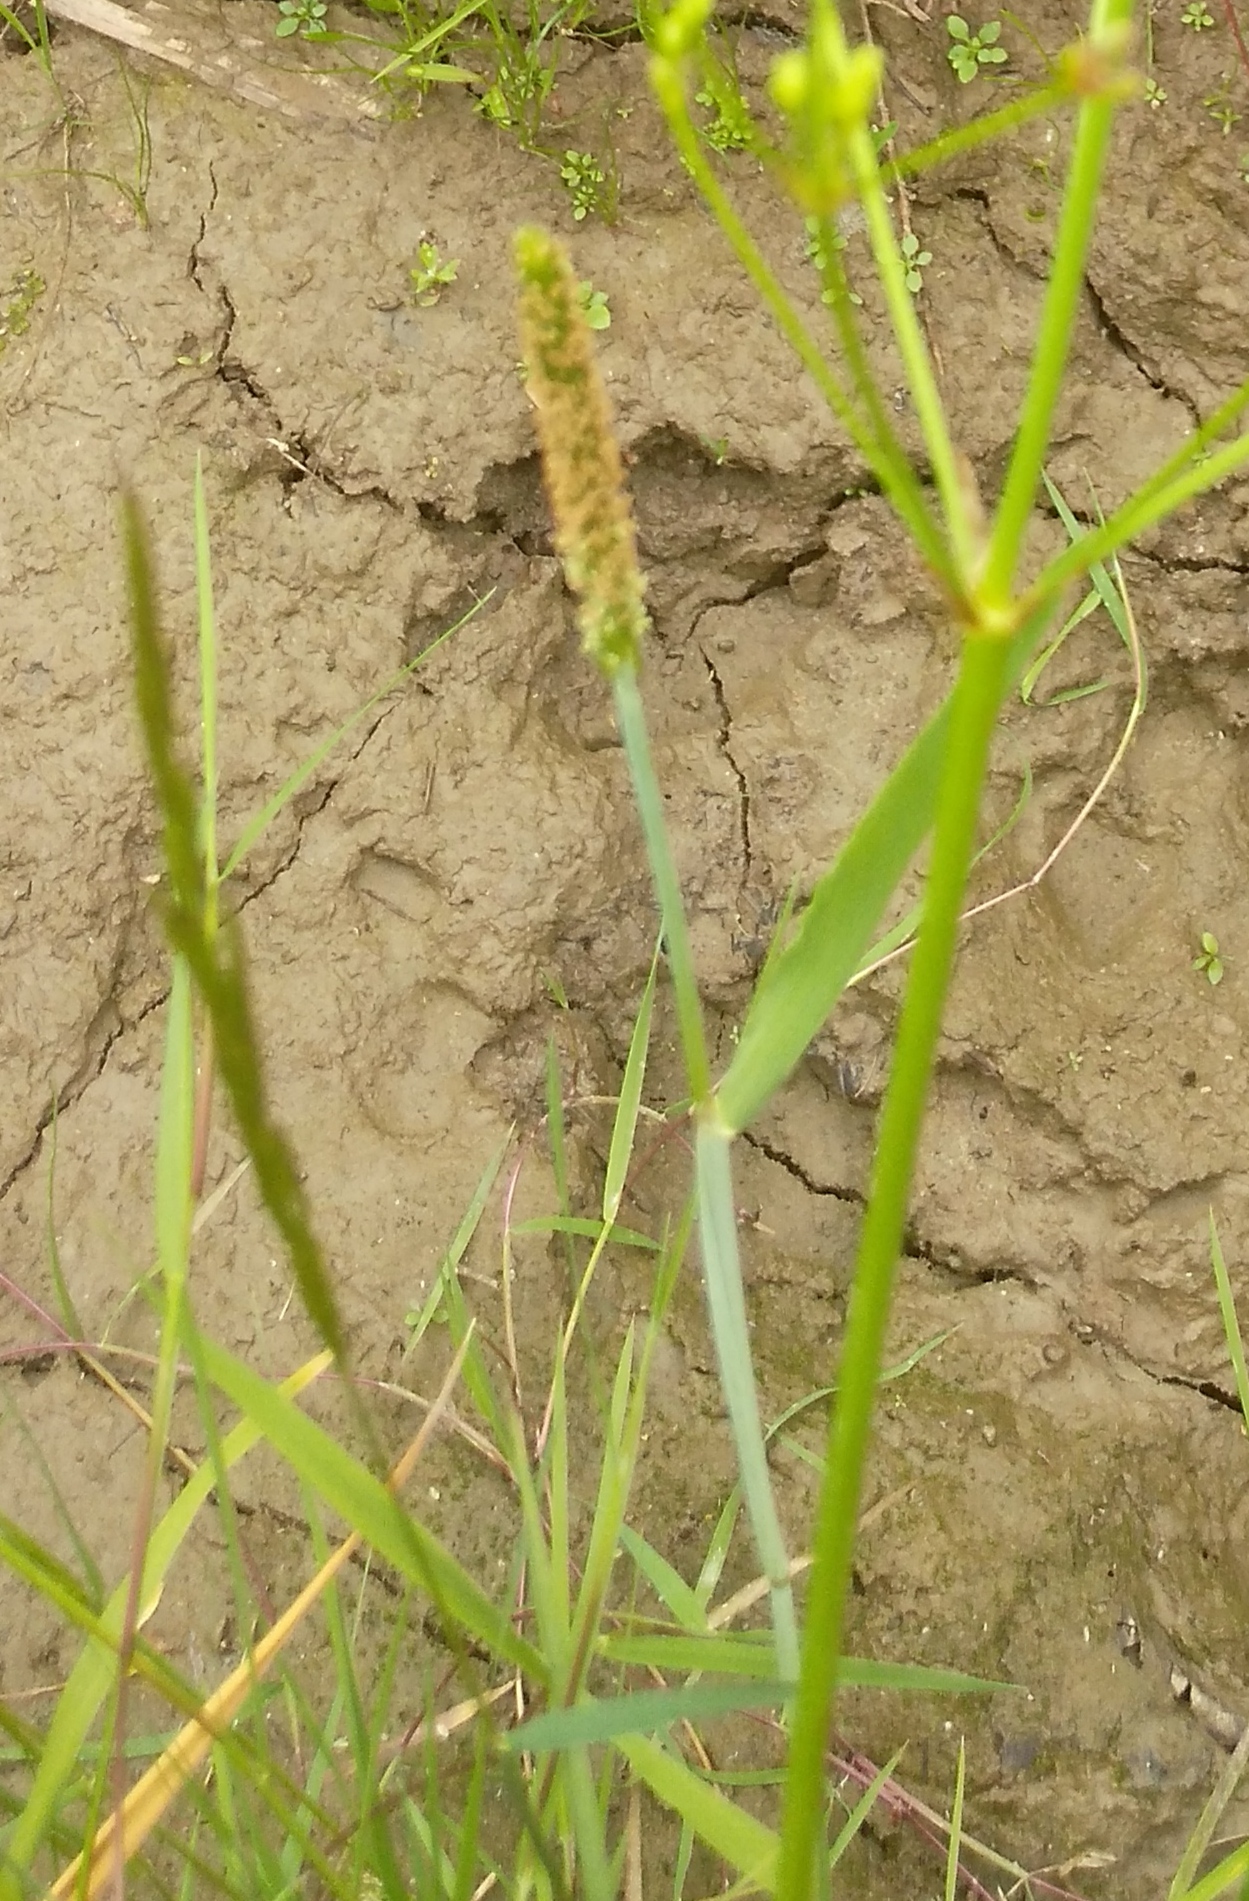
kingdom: Plantae
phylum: Tracheophyta
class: Liliopsida
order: Poales
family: Poaceae
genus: Alopecurus
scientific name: Alopecurus aequalis
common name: Orange foxtail
